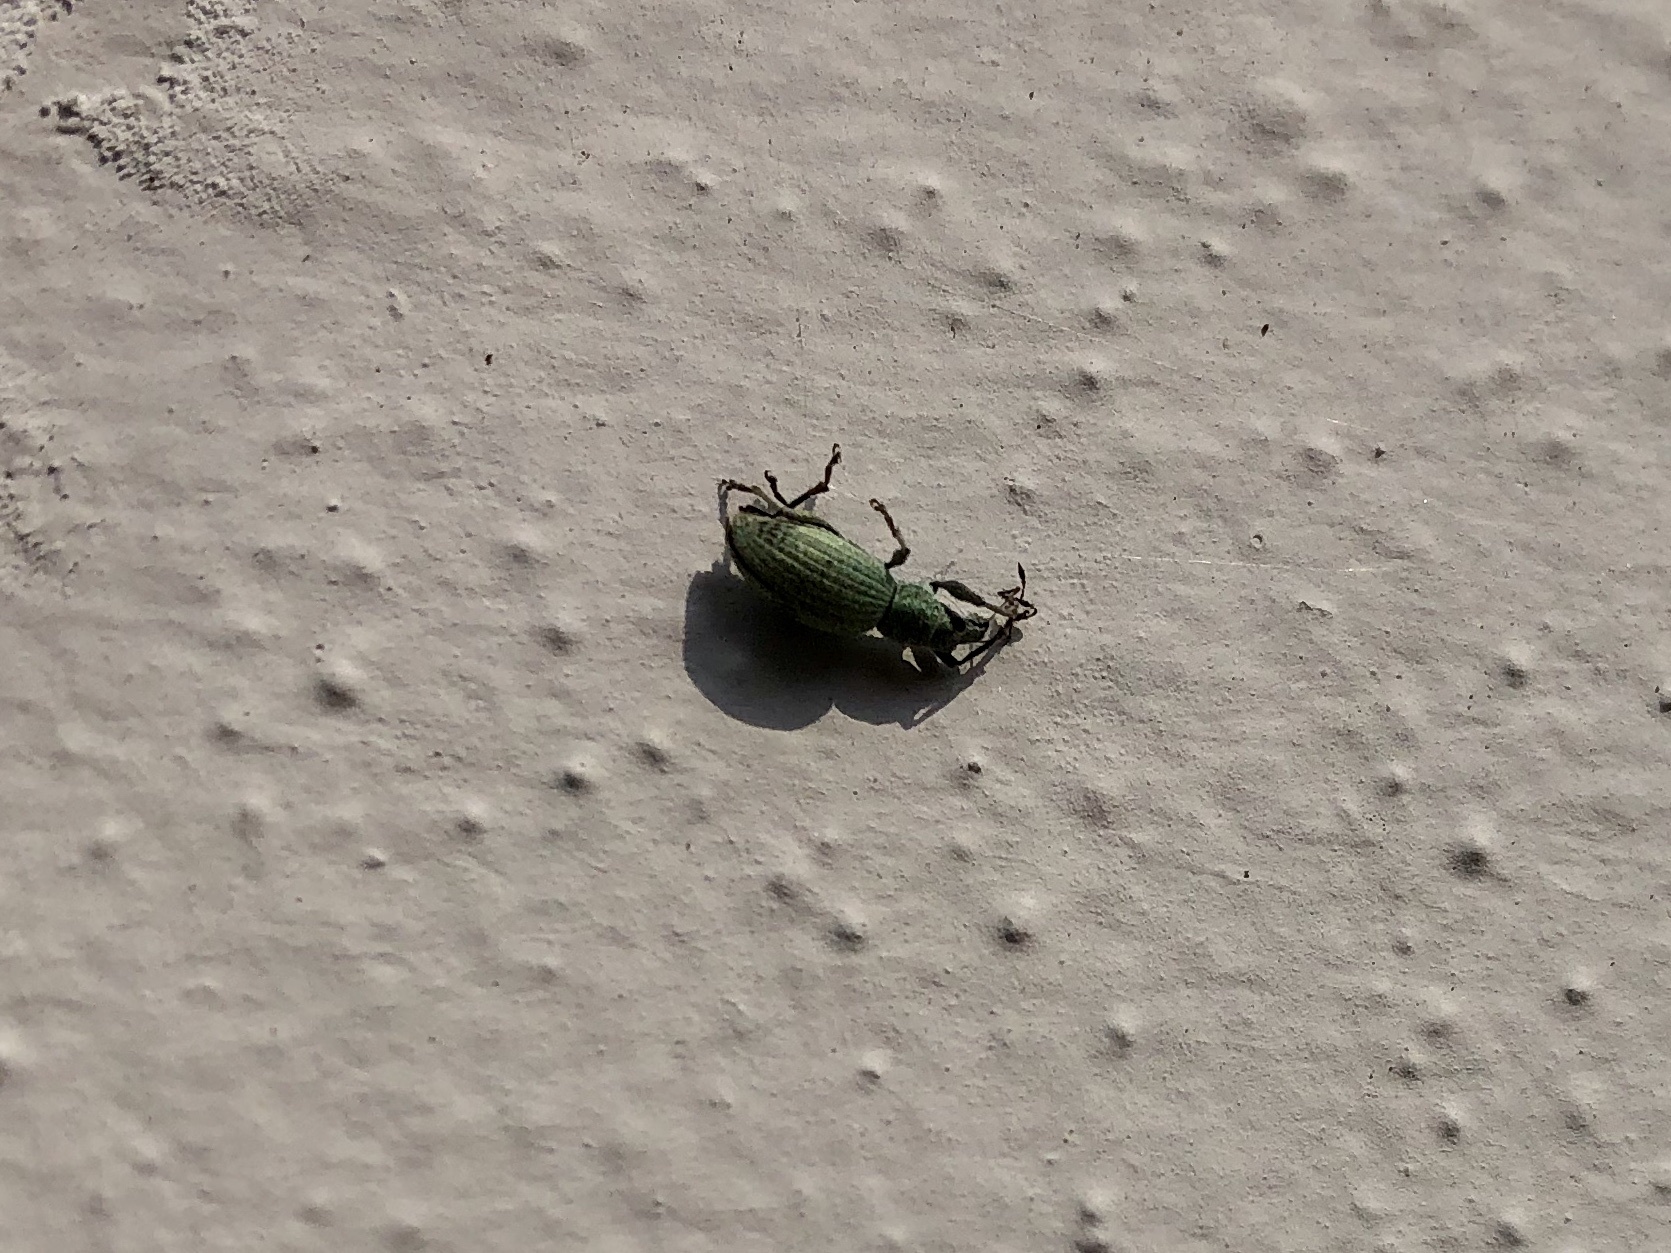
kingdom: Animalia
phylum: Arthropoda
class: Insecta
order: Coleoptera
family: Curculionidae
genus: Eusomus
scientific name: Eusomus ovulum
